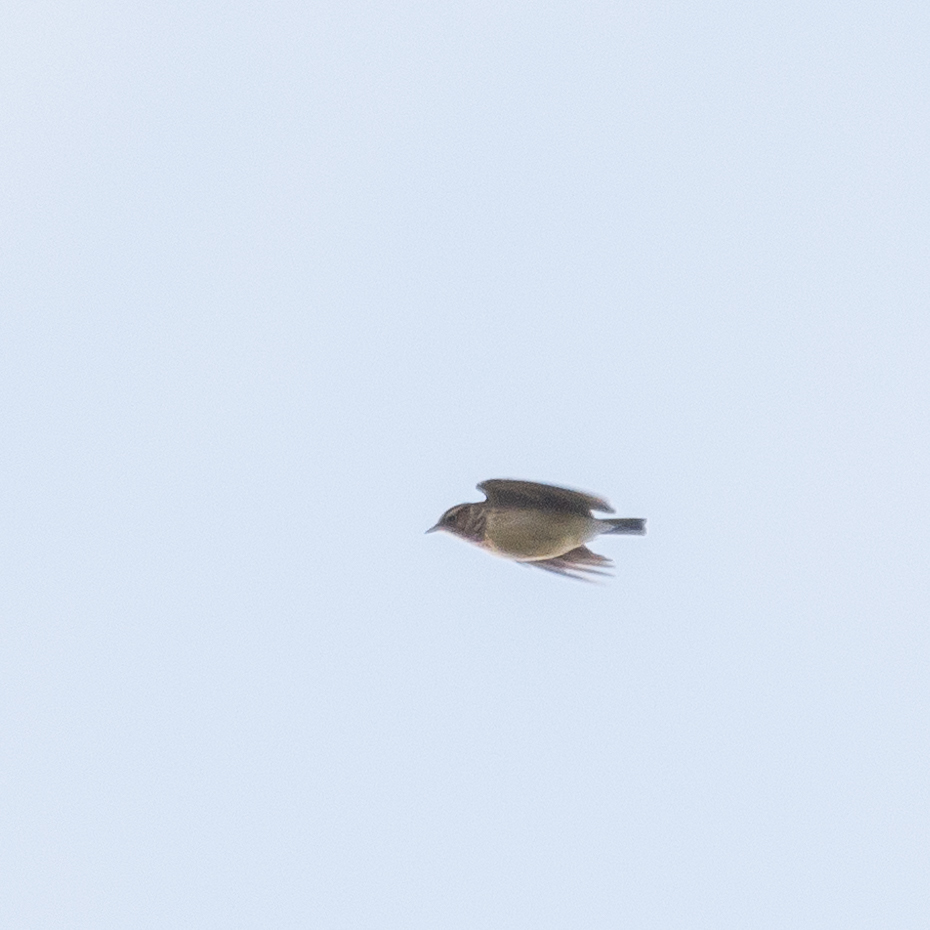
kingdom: Animalia
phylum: Chordata
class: Aves
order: Passeriformes
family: Alaudidae
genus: Lullula
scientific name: Lullula arborea
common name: Woodlark
